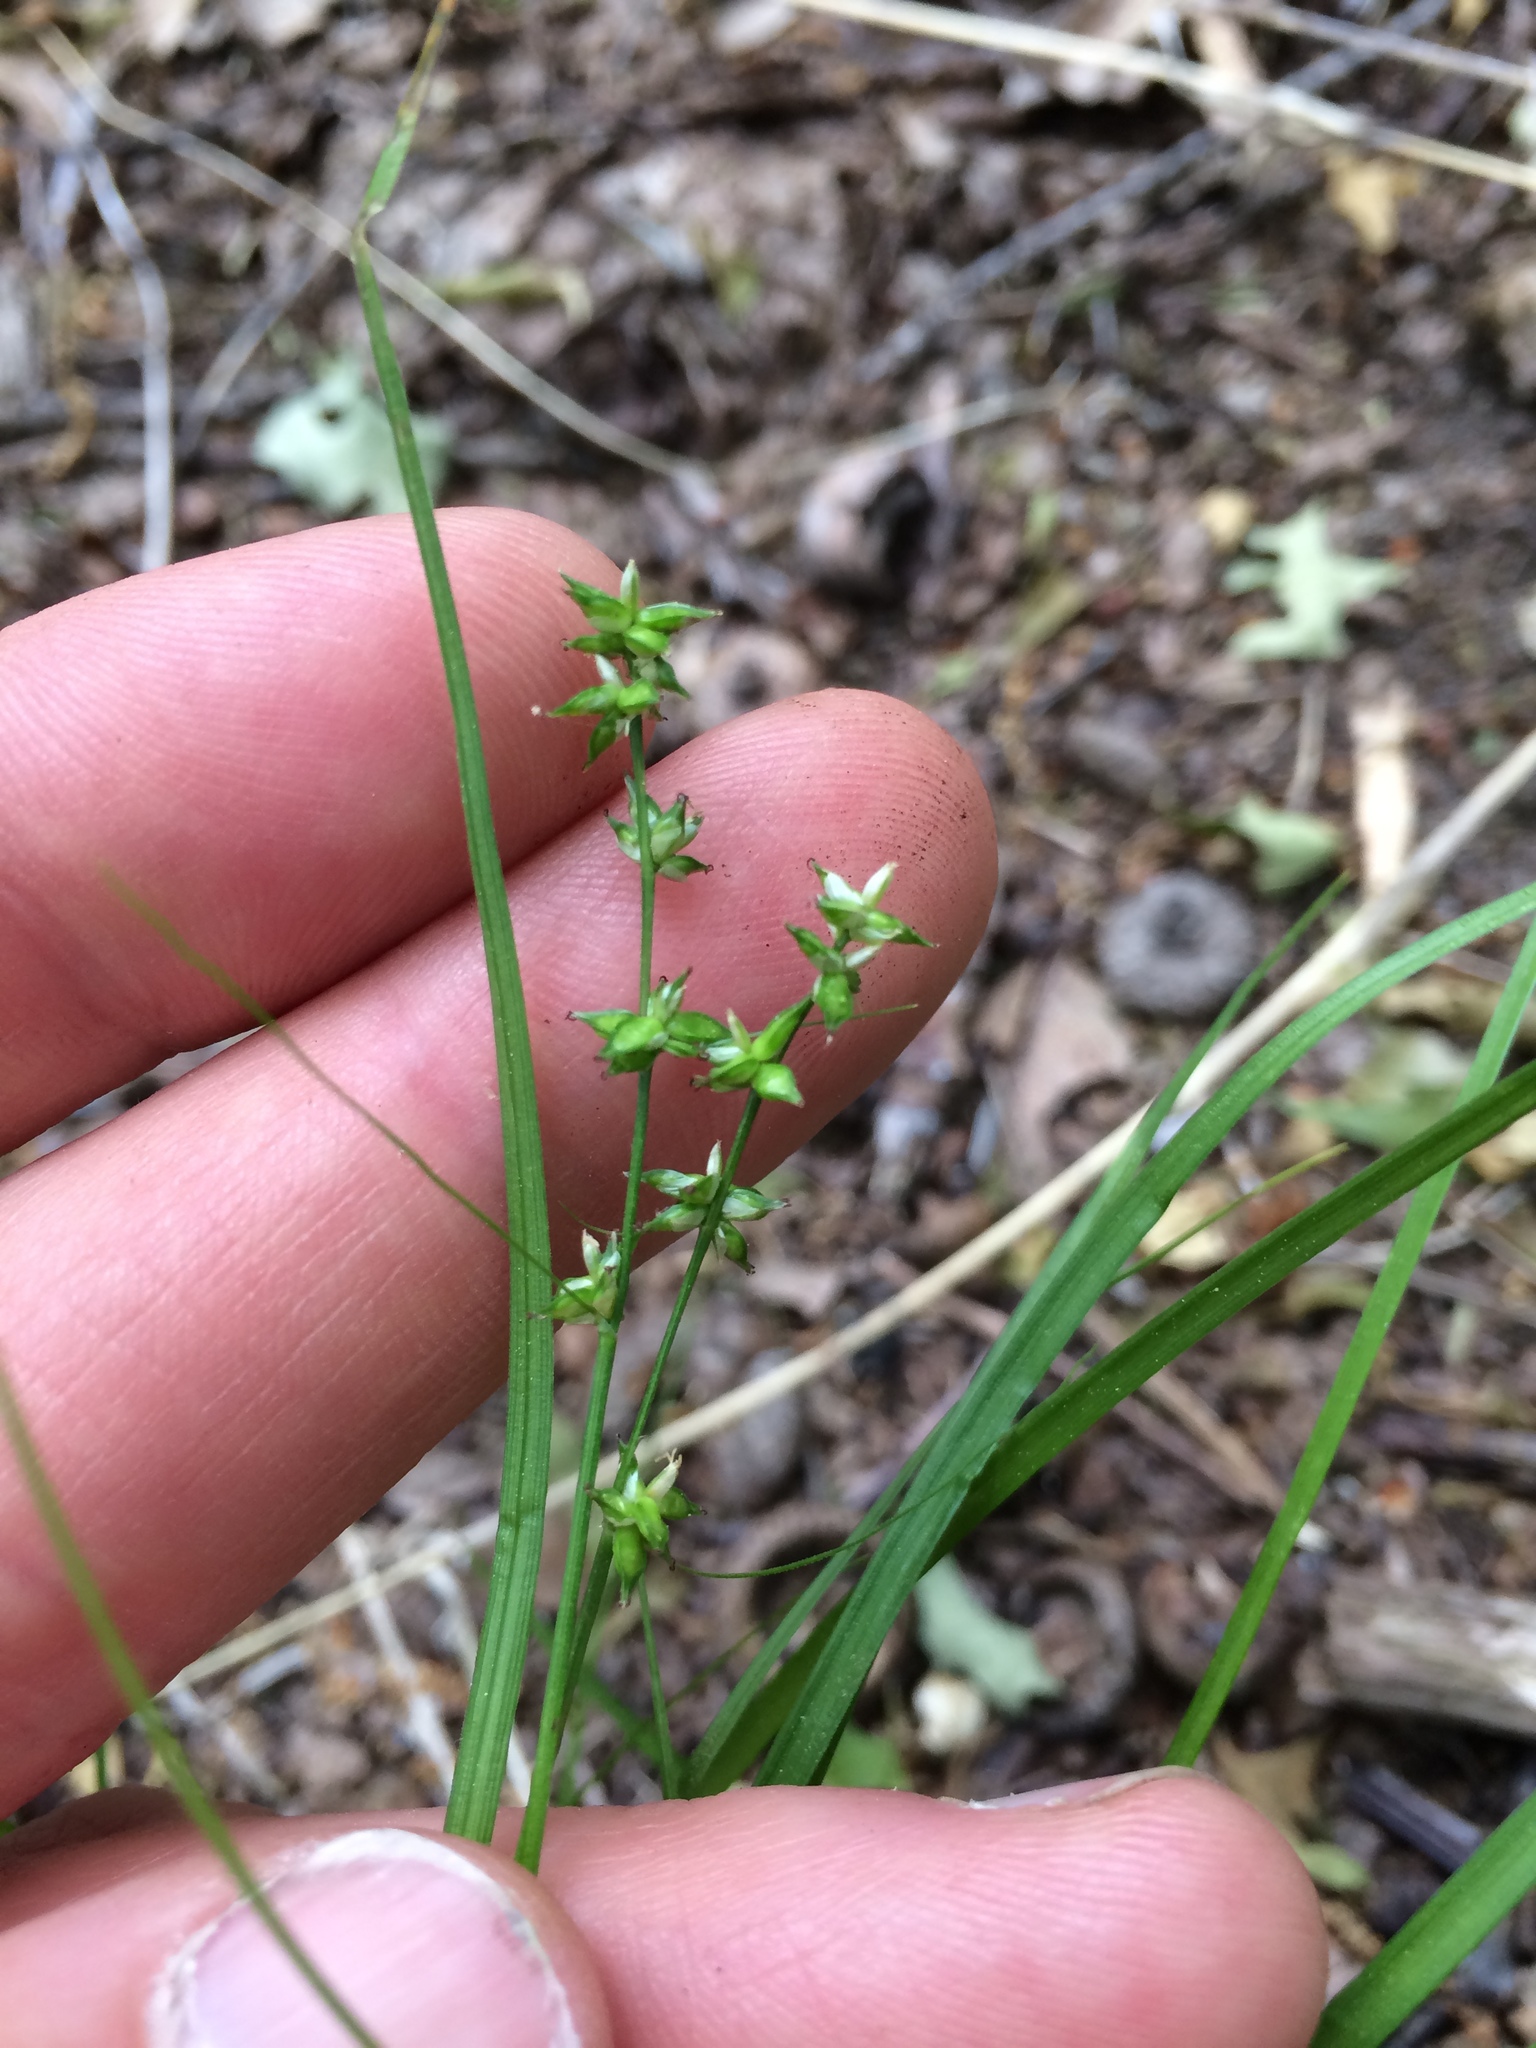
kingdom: Plantae
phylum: Tracheophyta
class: Liliopsida
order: Poales
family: Cyperaceae
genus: Carex
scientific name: Carex rosea
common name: Curly-styled wood sedge
